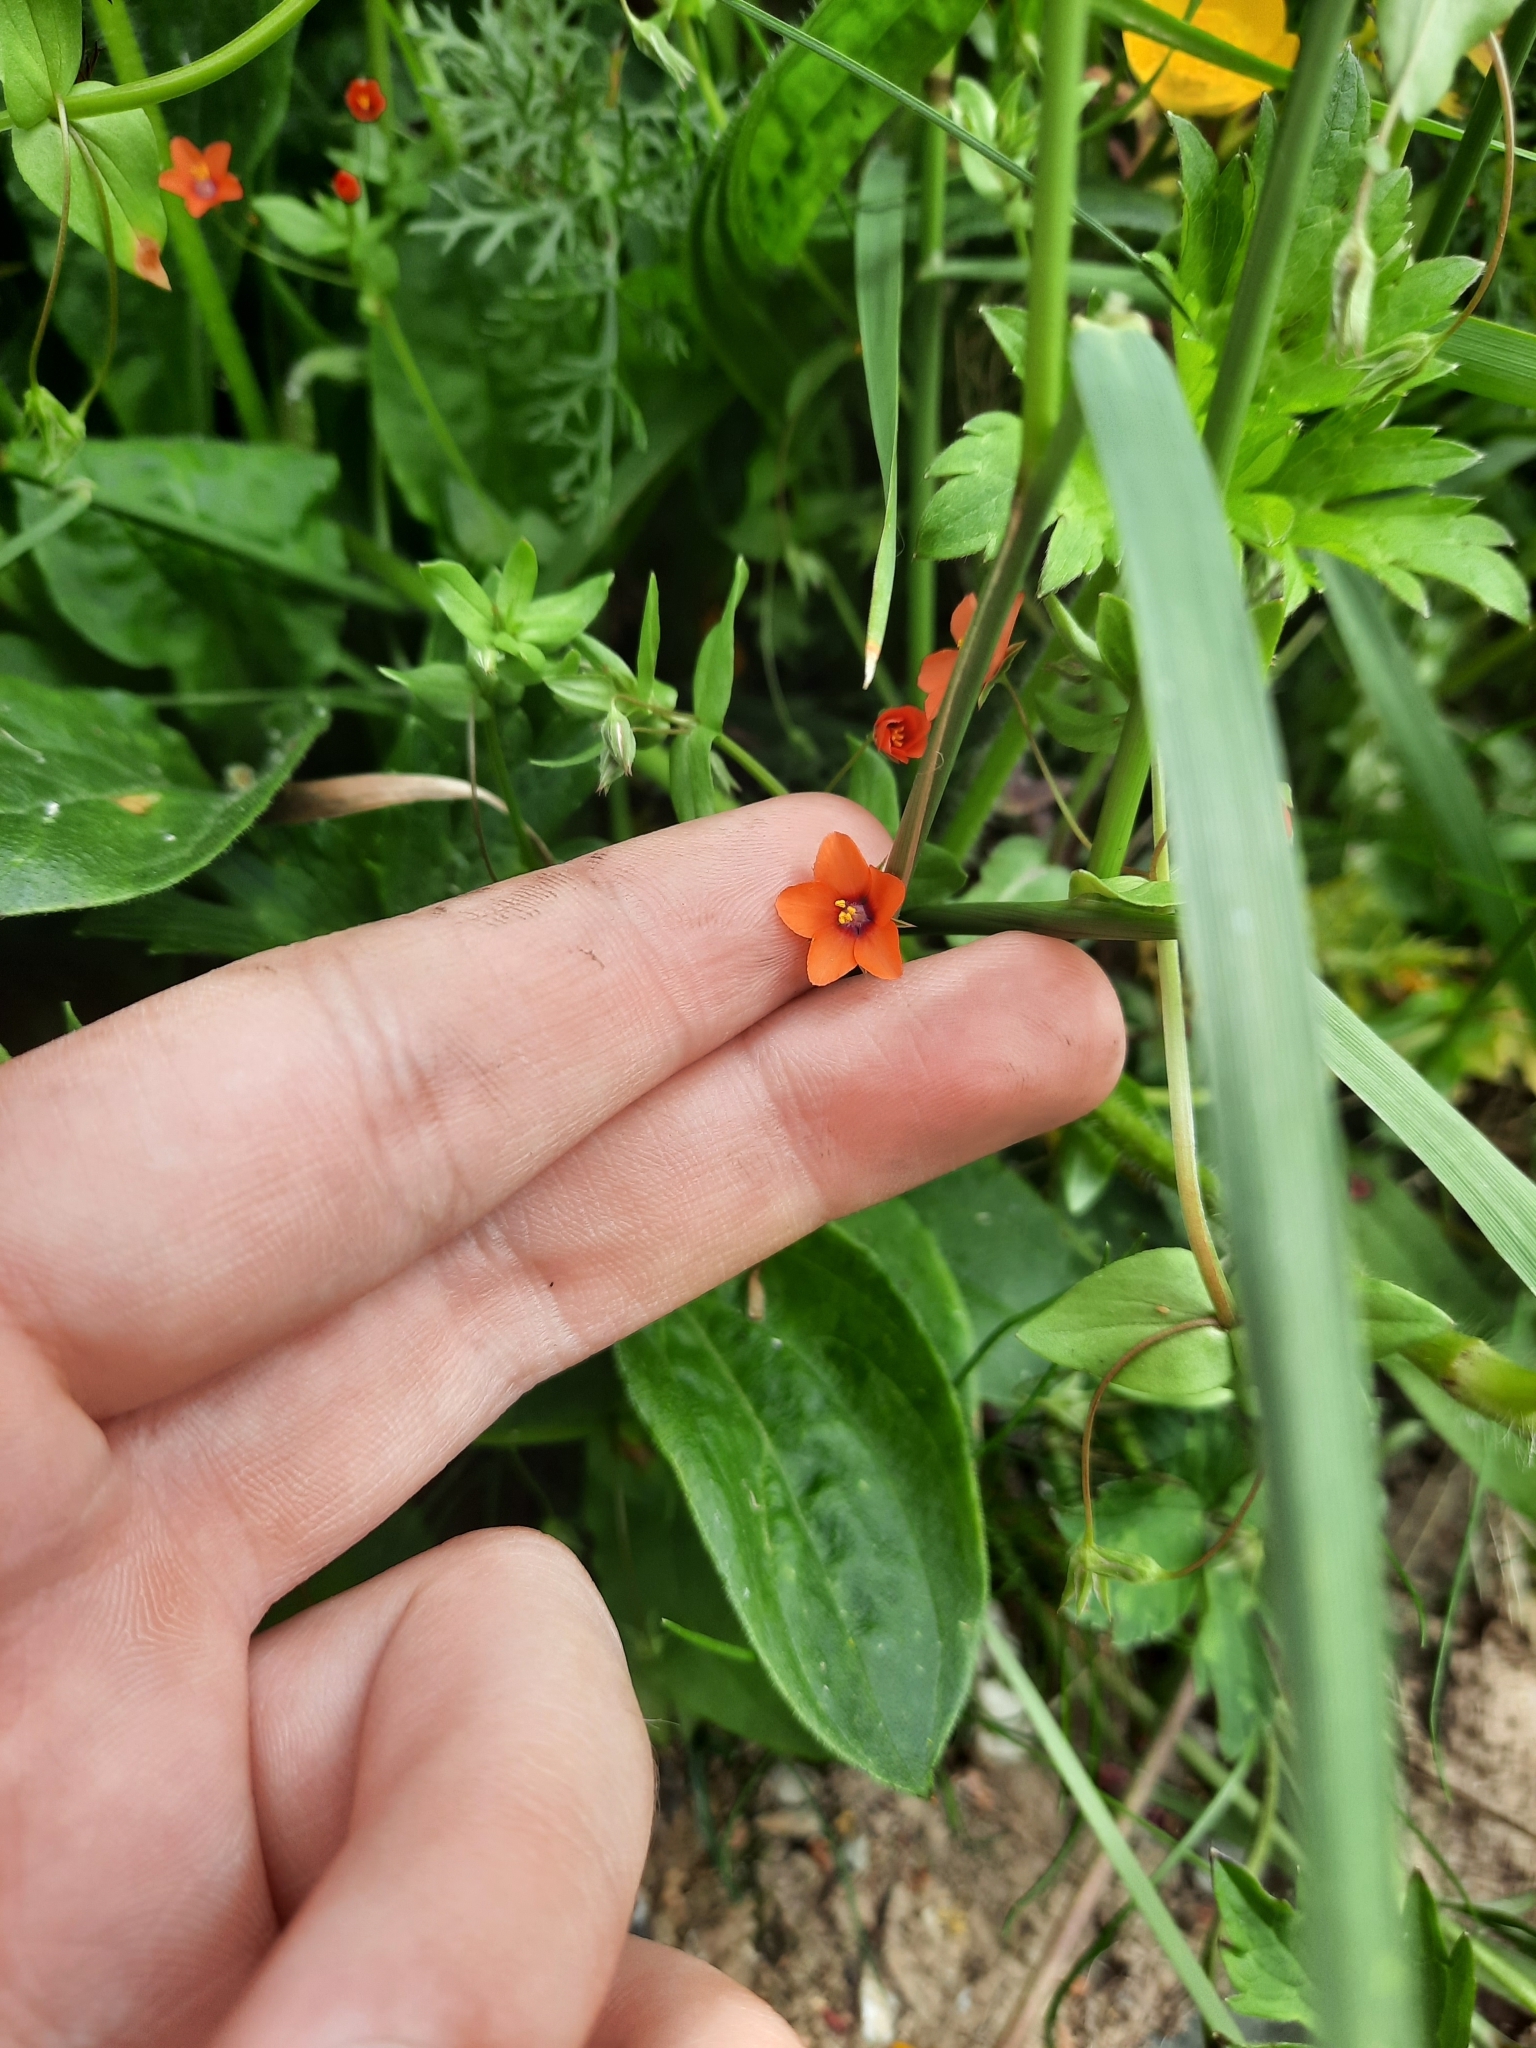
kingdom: Plantae
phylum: Tracheophyta
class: Magnoliopsida
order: Ericales
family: Primulaceae
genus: Lysimachia
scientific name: Lysimachia arvensis
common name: Scarlet pimpernel
